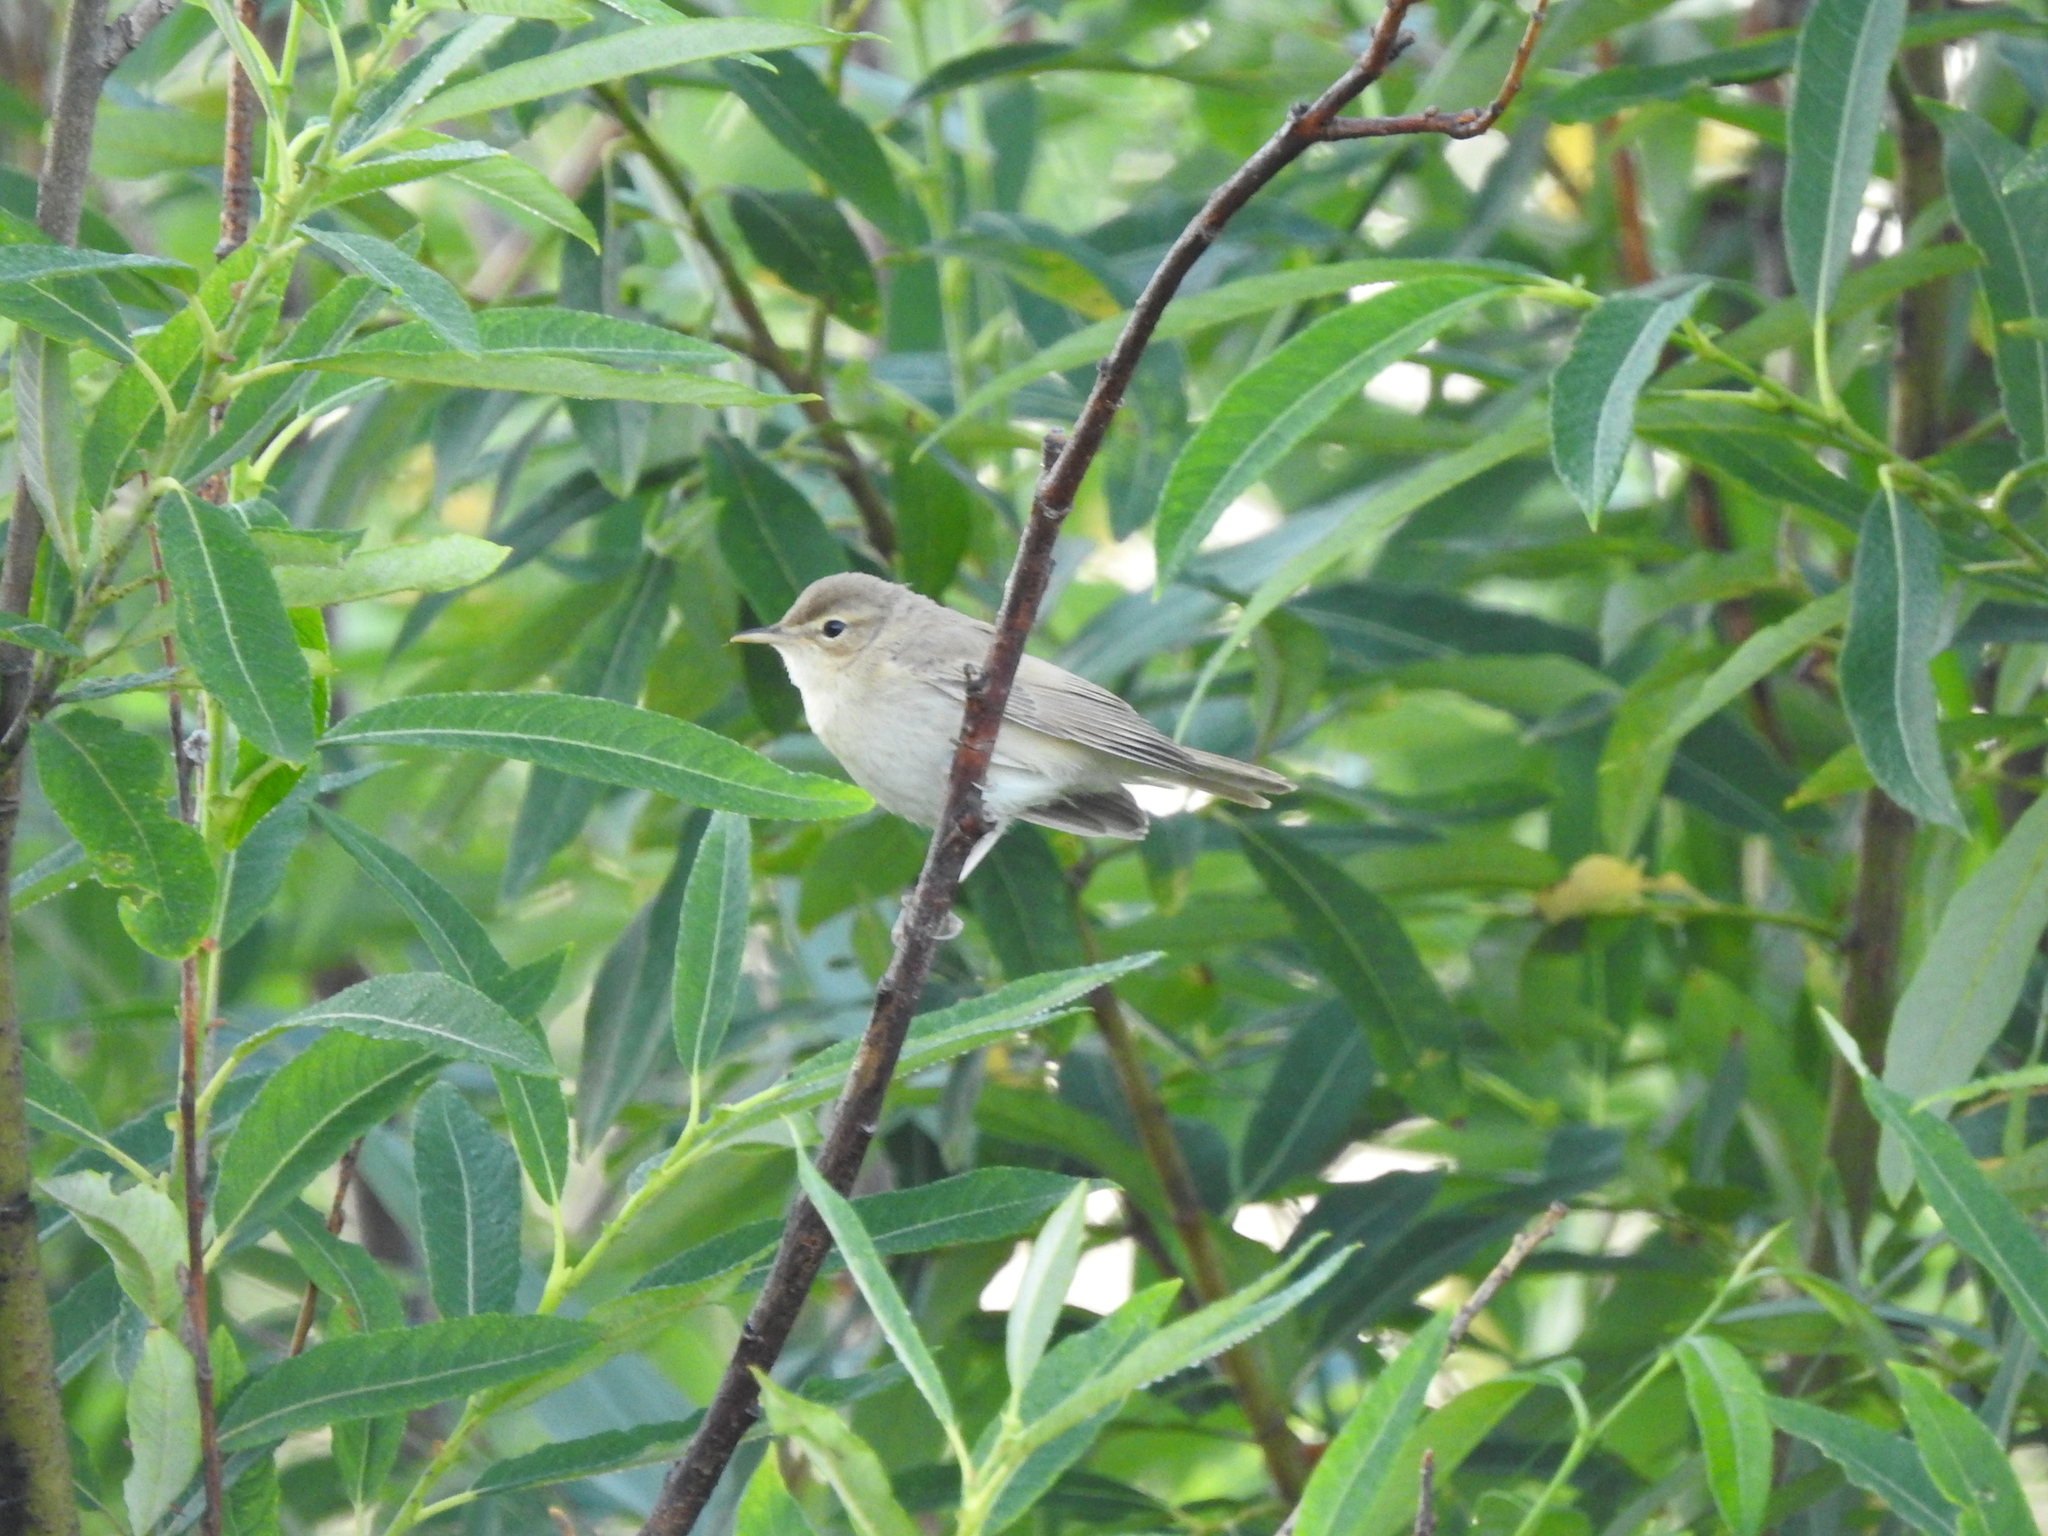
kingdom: Animalia
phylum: Chordata
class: Aves
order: Passeriformes
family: Acrocephalidae
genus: Iduna
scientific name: Iduna caligata
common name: Booted warbler
